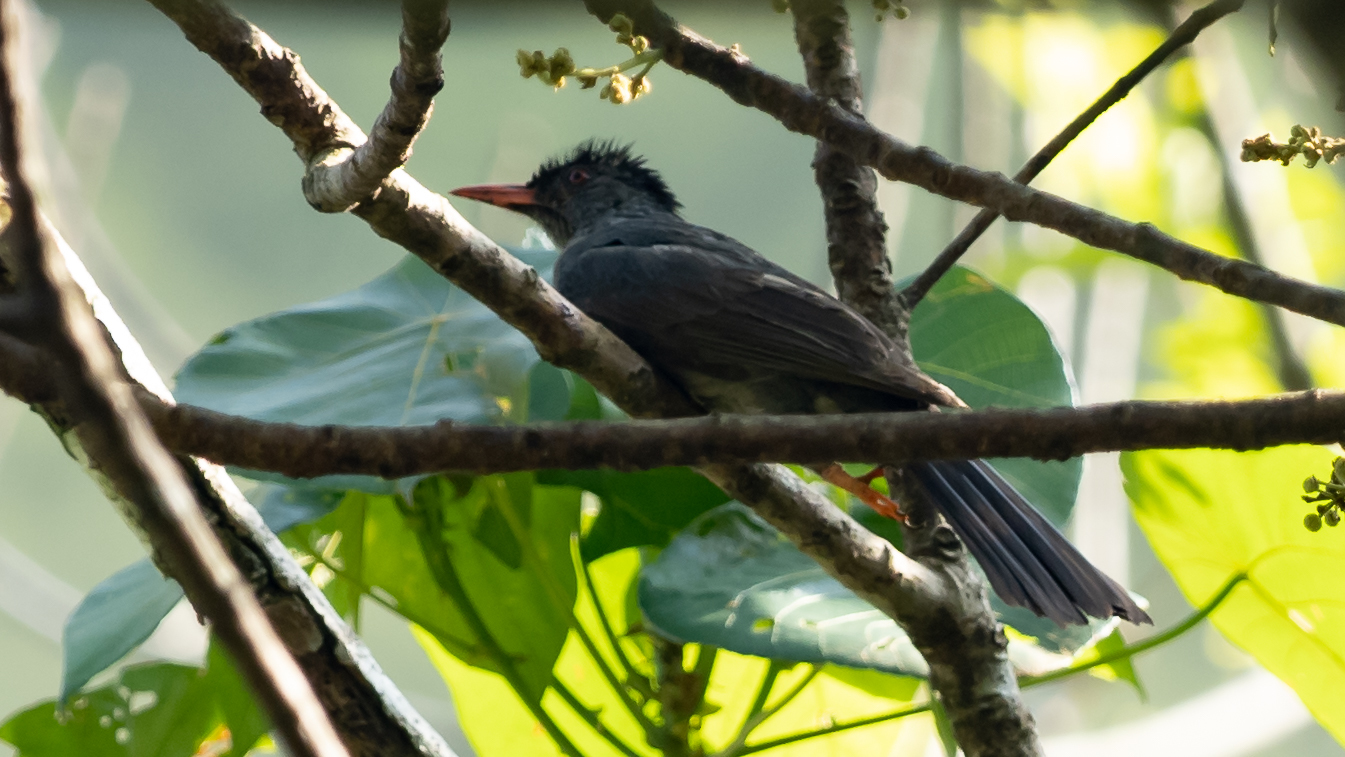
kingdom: Animalia
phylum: Chordata
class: Aves
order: Passeriformes
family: Pycnonotidae
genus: Hypsipetes
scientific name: Hypsipetes ganeesa
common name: Square-tailed bulbul
